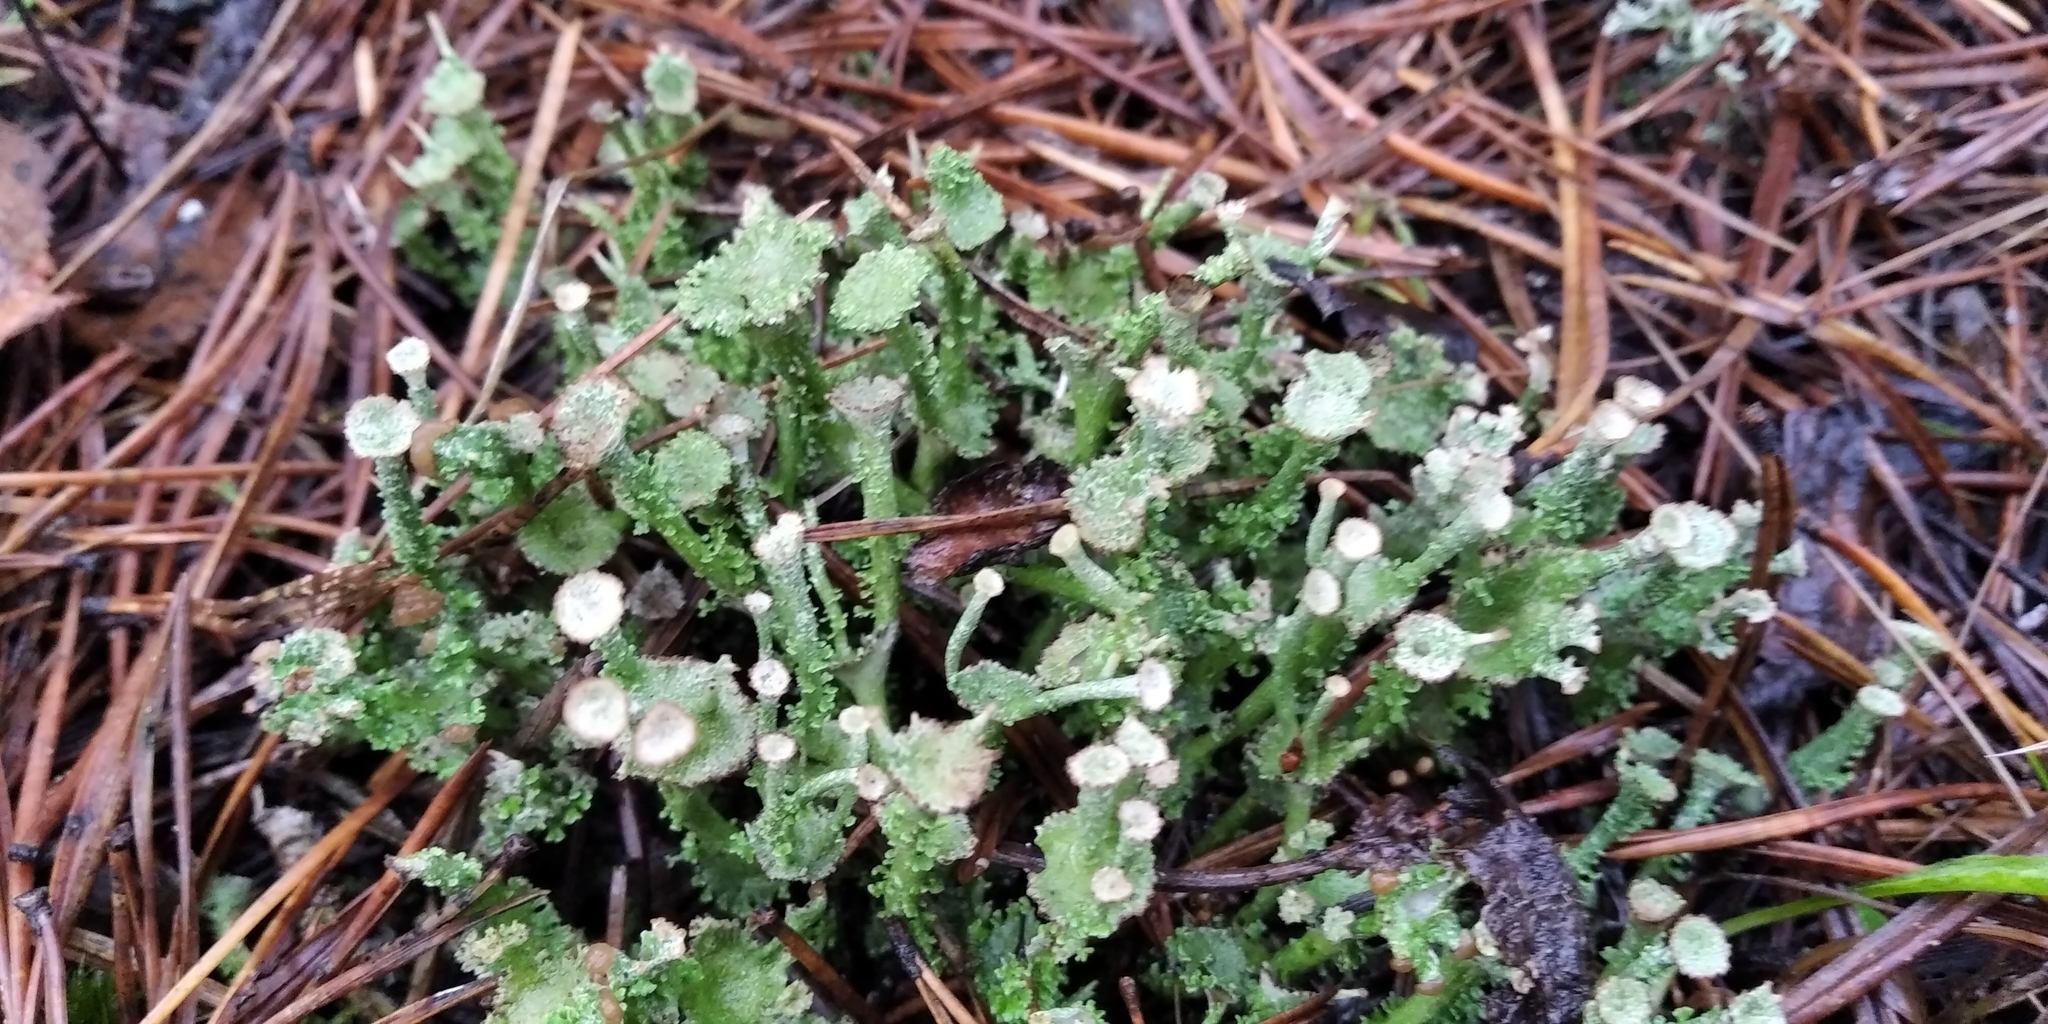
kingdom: Fungi
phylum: Ascomycota
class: Lecanoromycetes
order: Lecanorales
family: Cladoniaceae
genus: Cladonia
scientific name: Cladonia cervicornis
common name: Browned pixie-cup lichen
